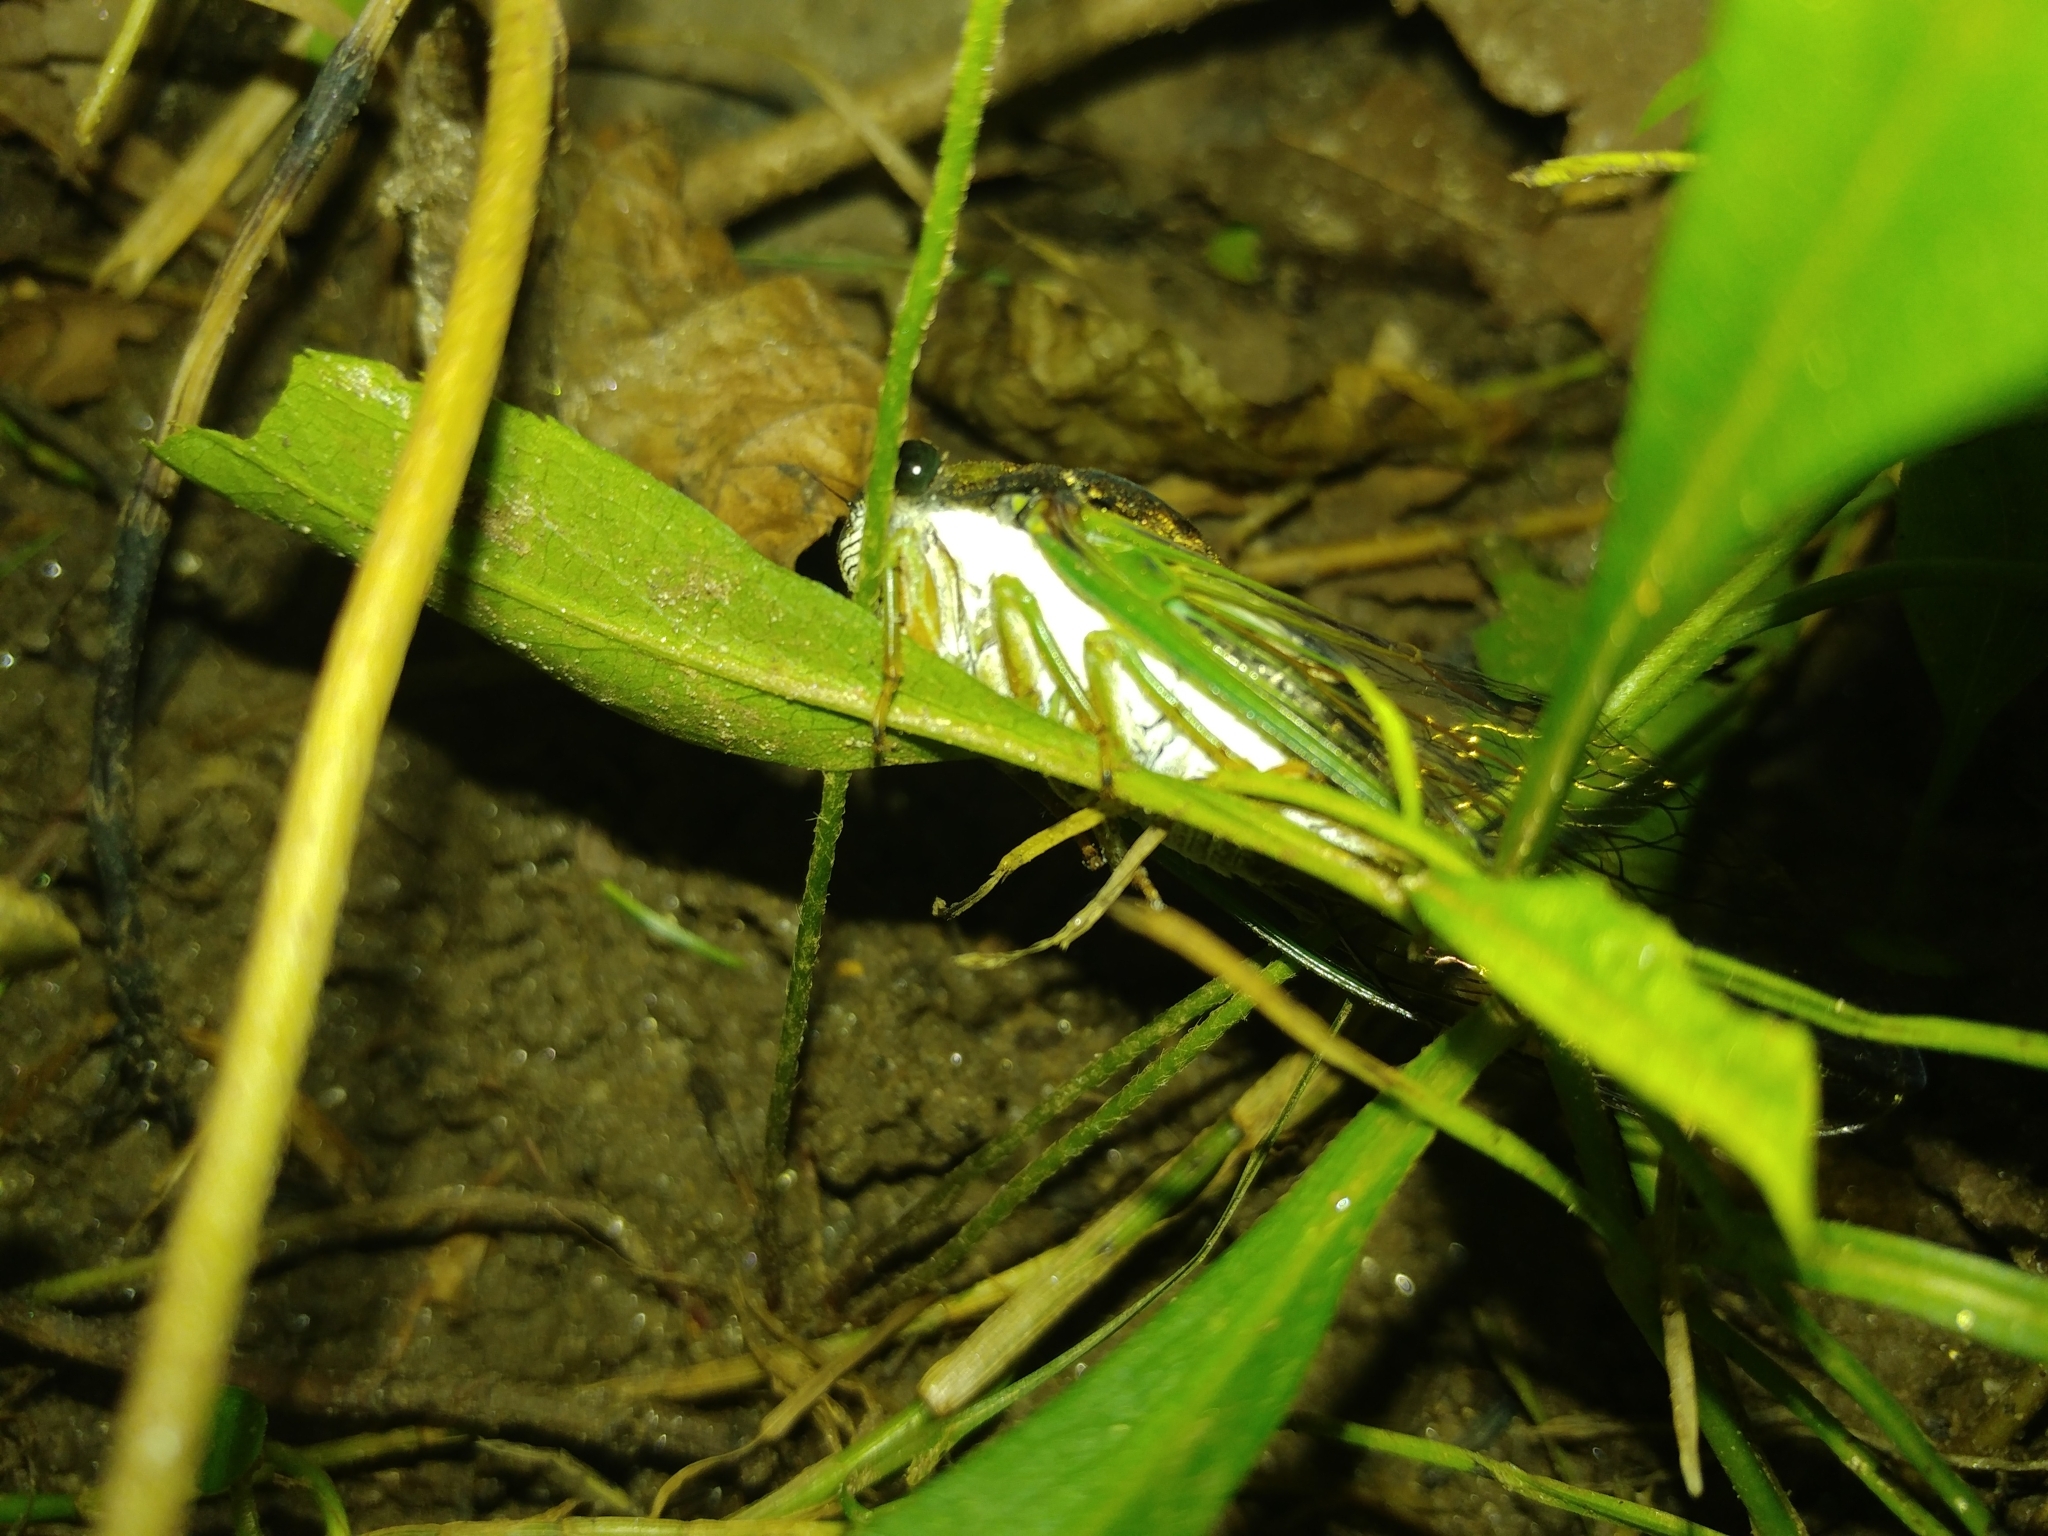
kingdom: Animalia
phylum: Arthropoda
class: Insecta
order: Hemiptera
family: Cicadidae
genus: Neotibicen
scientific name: Neotibicen tibicen
